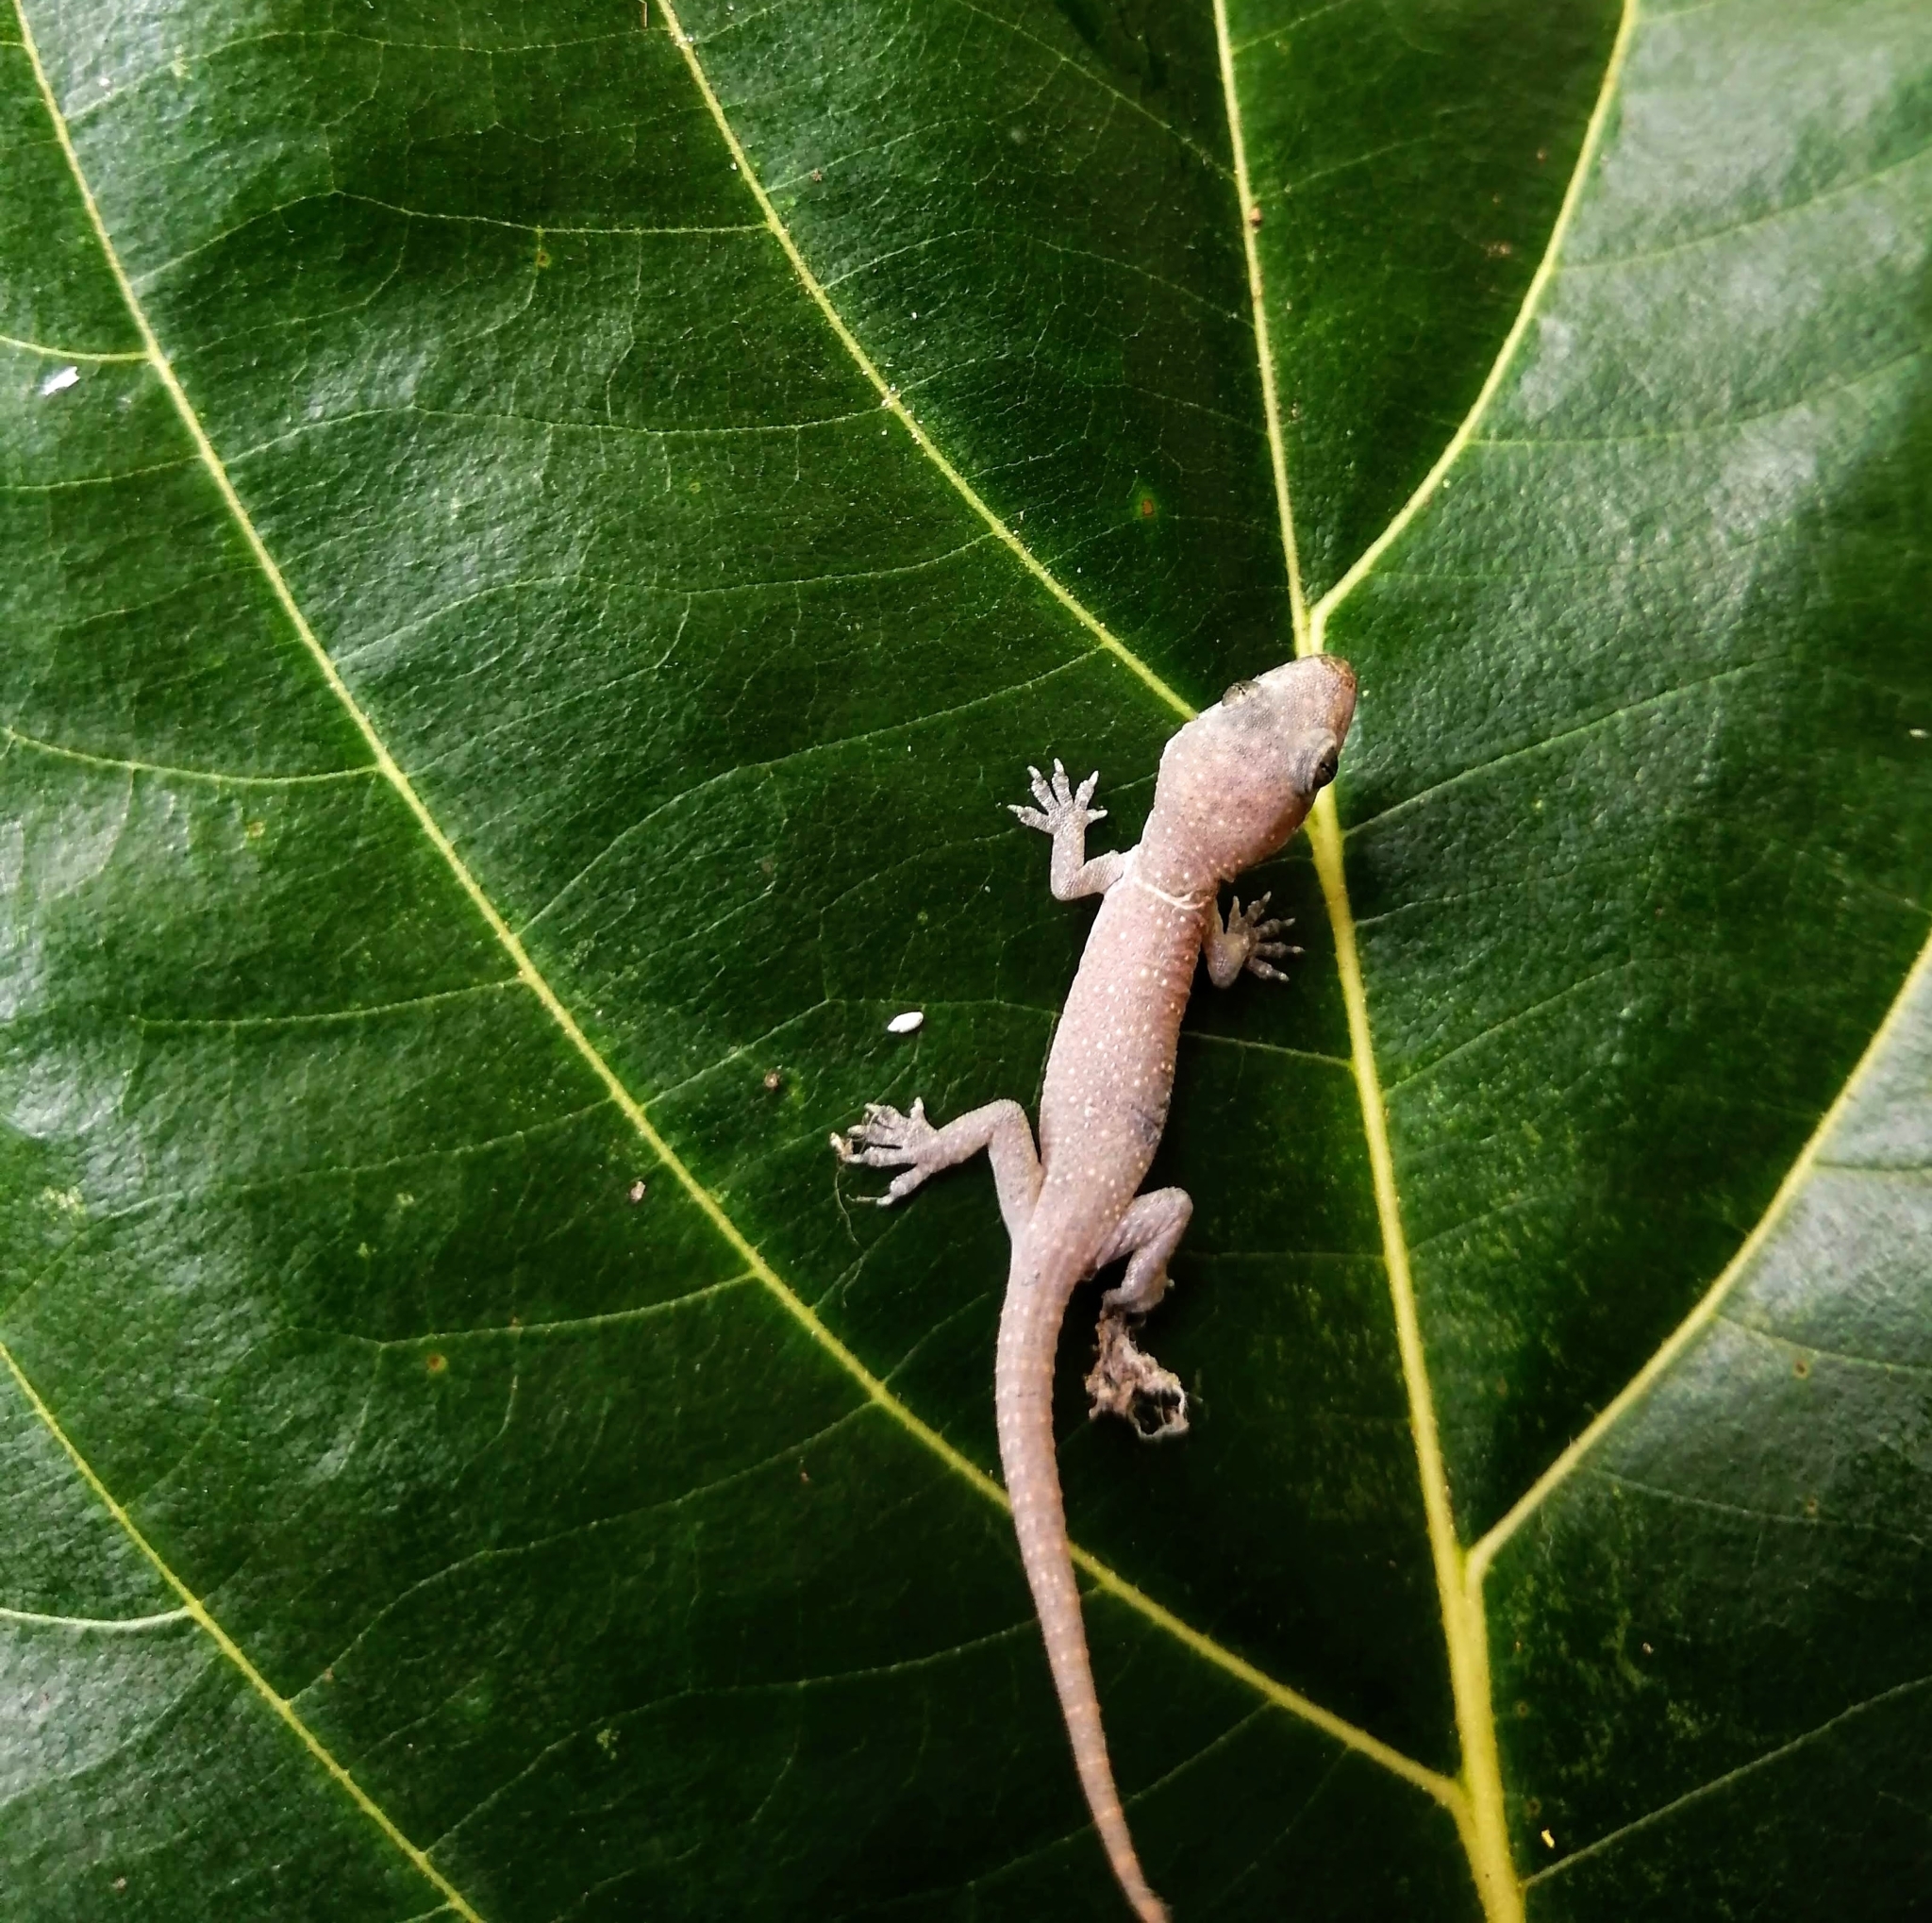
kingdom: Animalia
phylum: Chordata
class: Squamata
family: Gekkonidae
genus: Hemidactylus
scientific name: Hemidactylus frenatus
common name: Common house gecko
